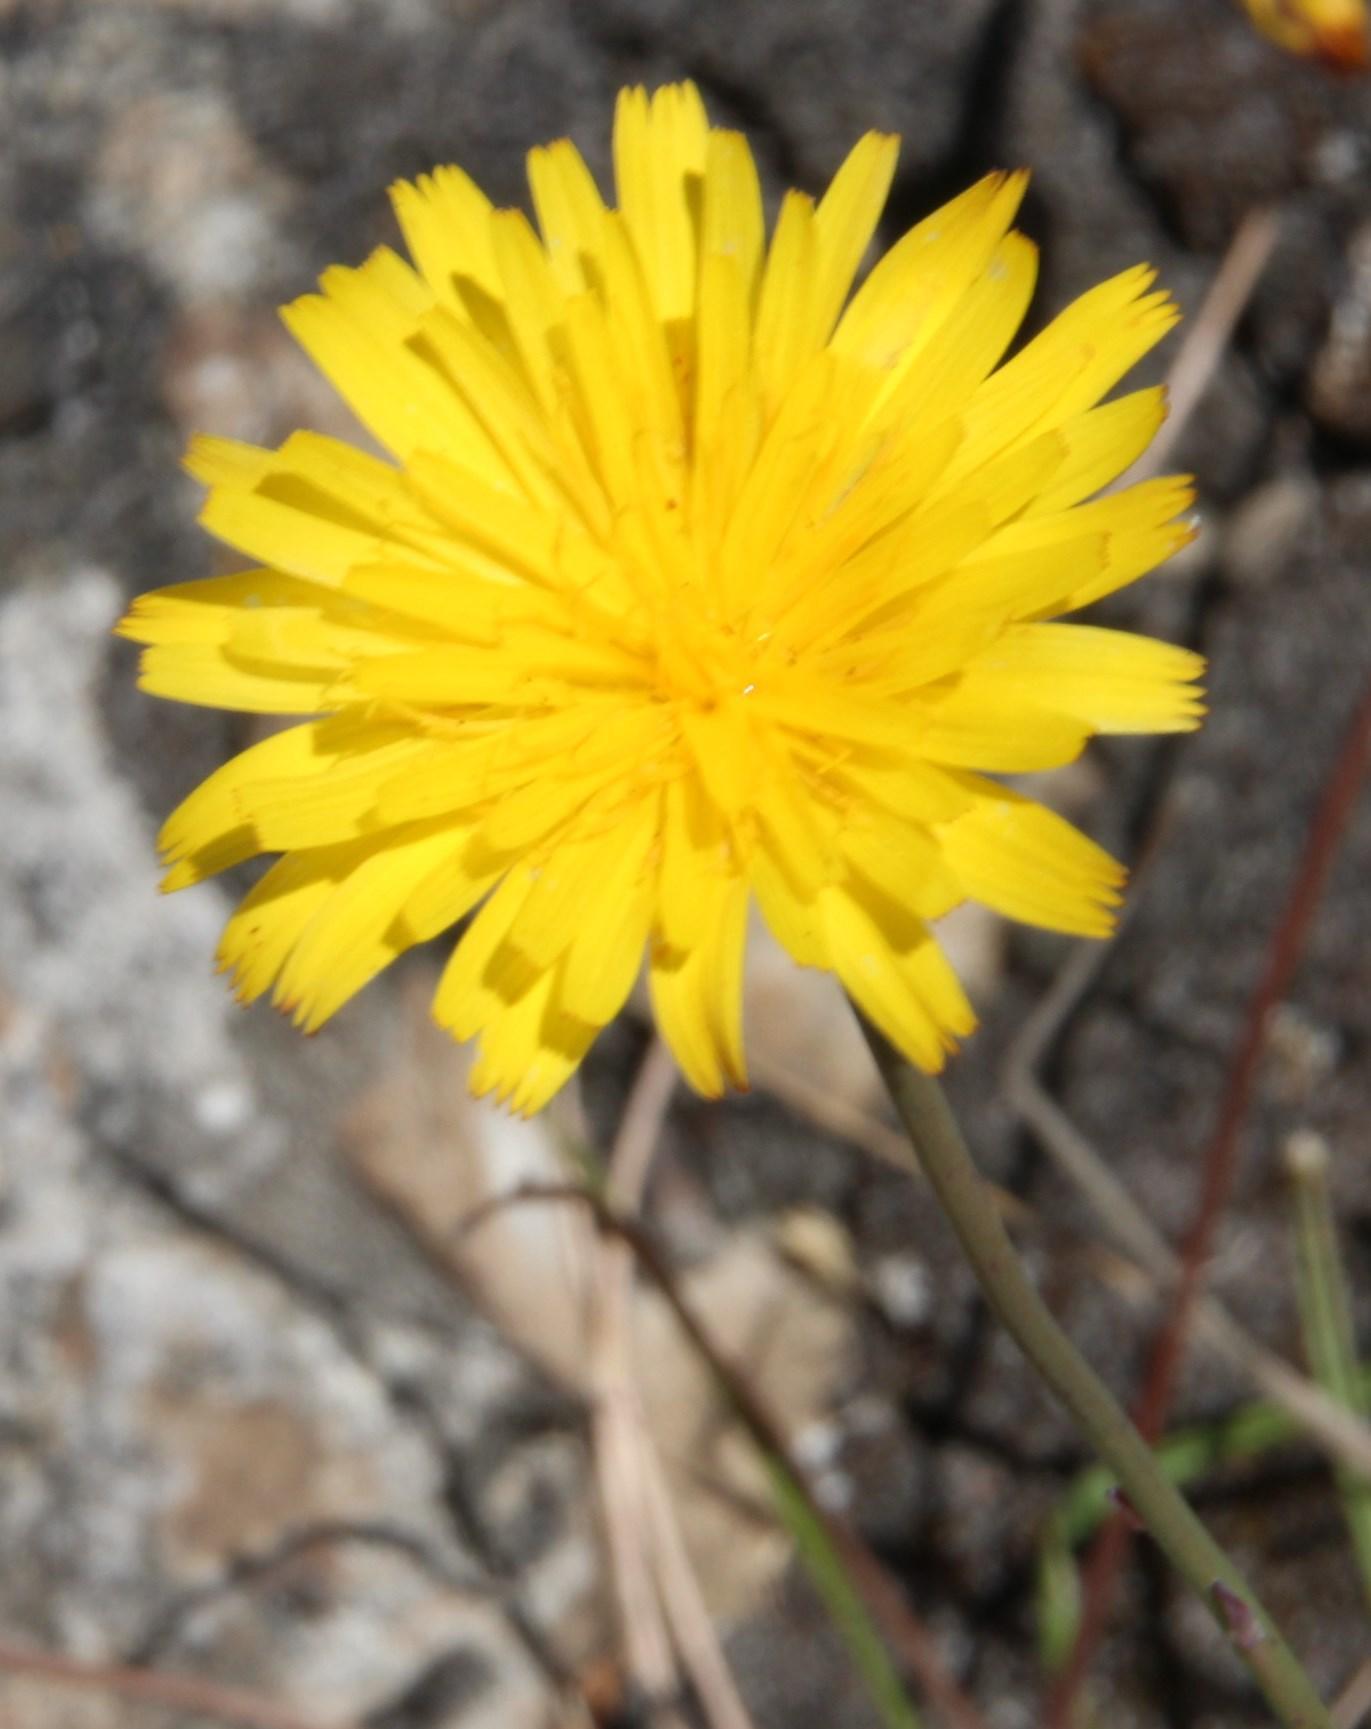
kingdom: Plantae
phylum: Tracheophyta
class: Magnoliopsida
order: Asterales
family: Asteraceae
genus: Hypochaeris
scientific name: Hypochaeris radicata
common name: Flatweed
